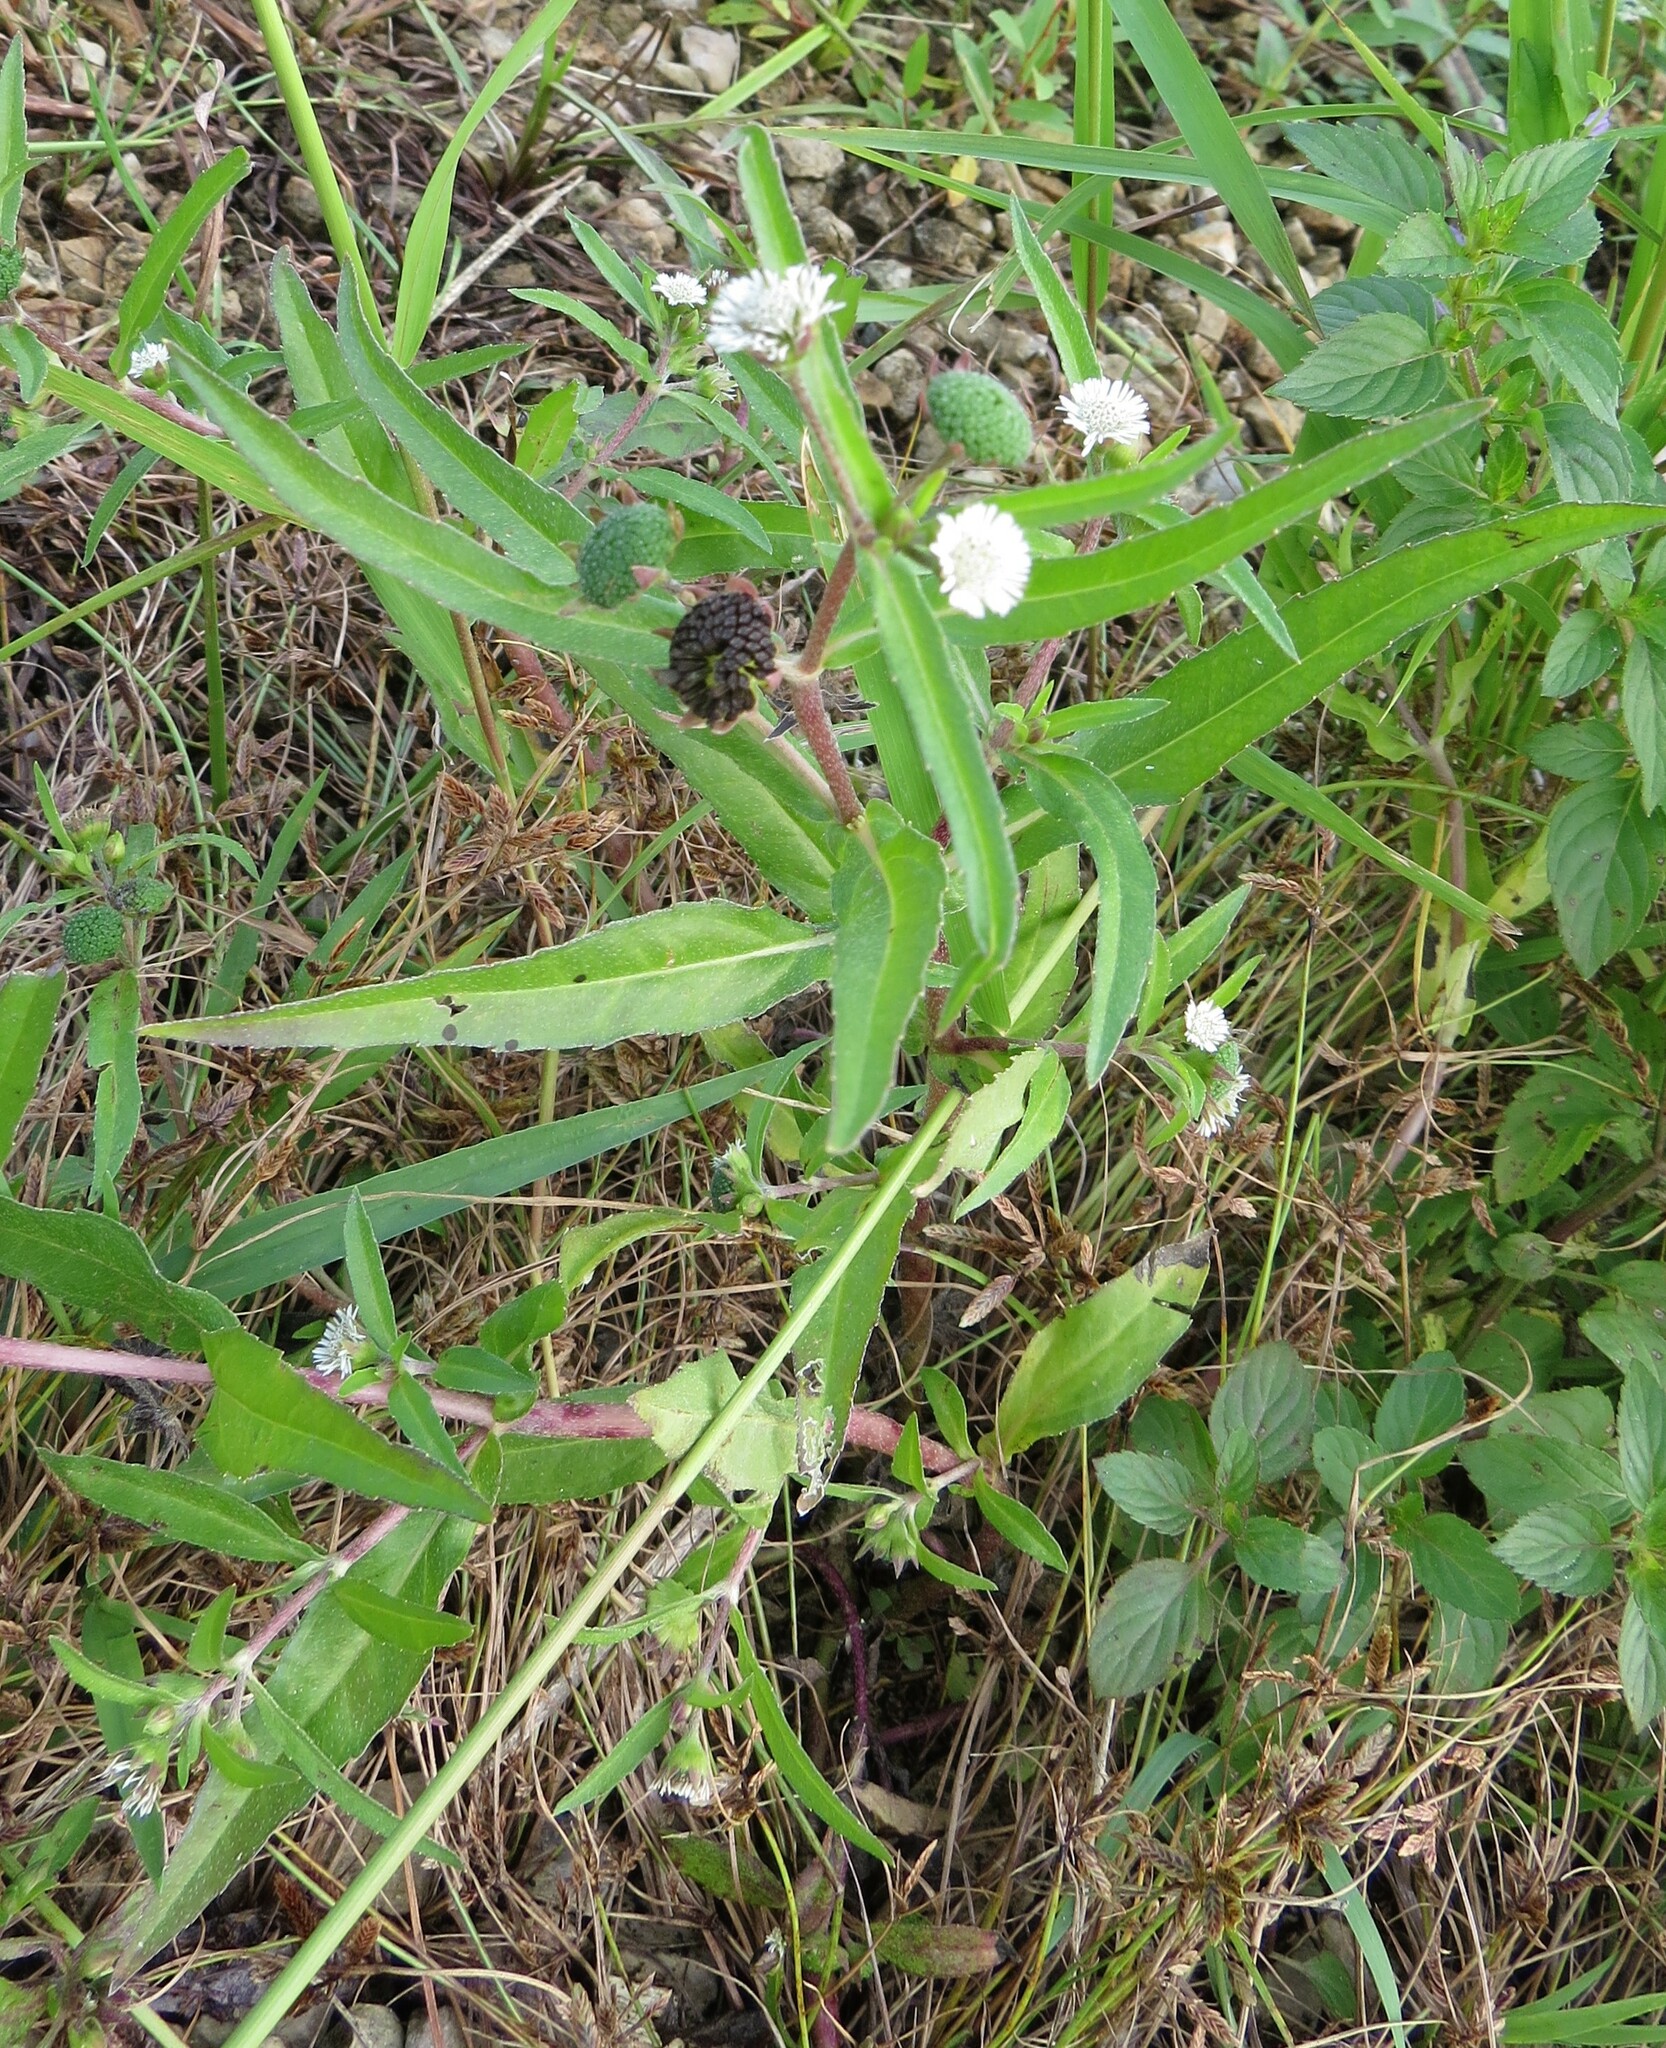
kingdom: Plantae
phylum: Tracheophyta
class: Magnoliopsida
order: Asterales
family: Asteraceae
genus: Eclipta
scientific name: Eclipta prostrata
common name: False daisy
